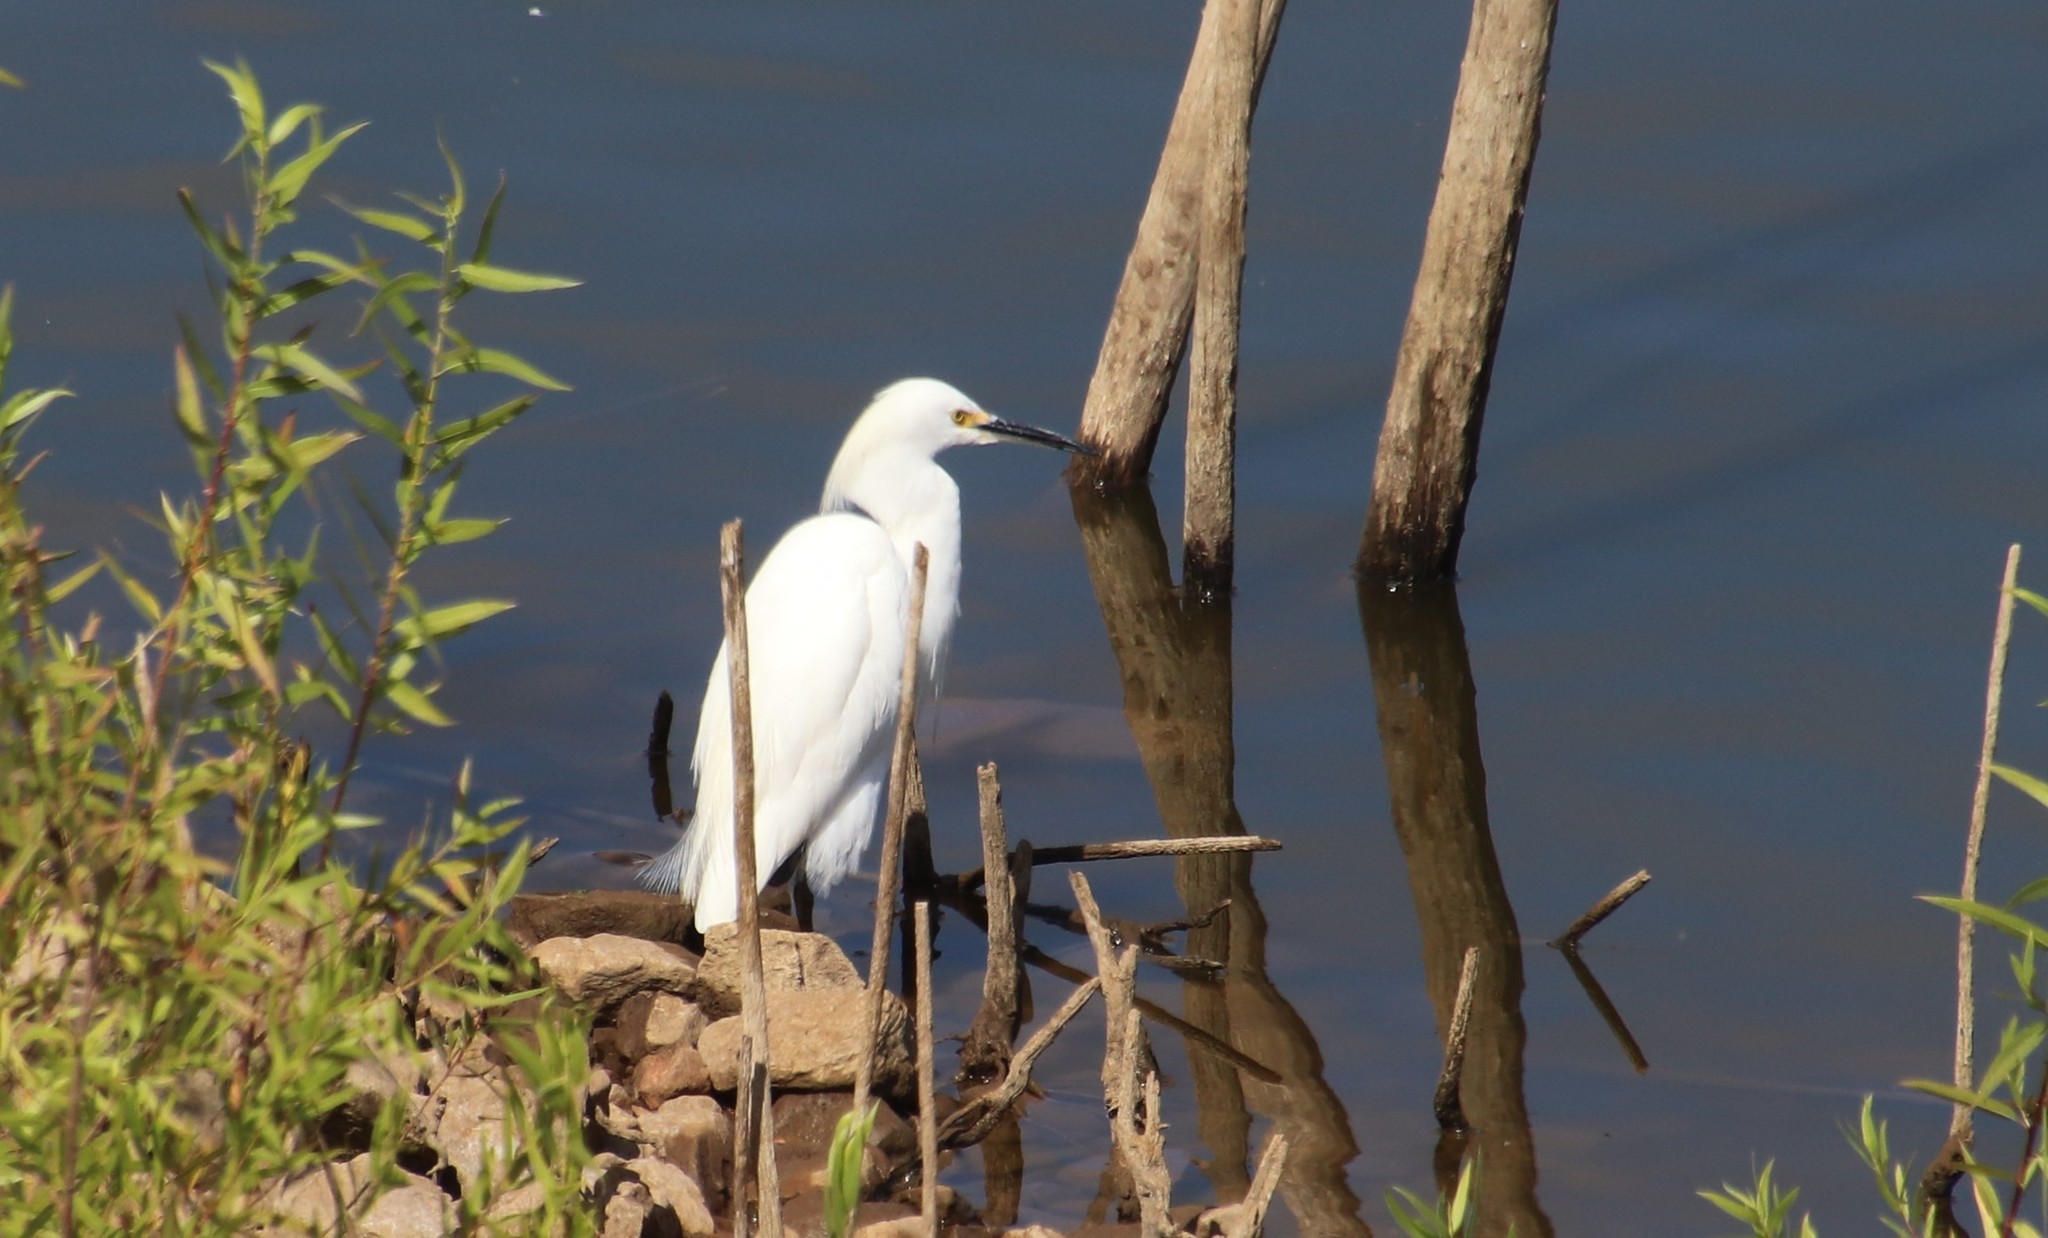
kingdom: Animalia
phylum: Chordata
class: Aves
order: Pelecaniformes
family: Ardeidae
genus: Egretta
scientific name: Egretta thula
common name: Snowy egret
